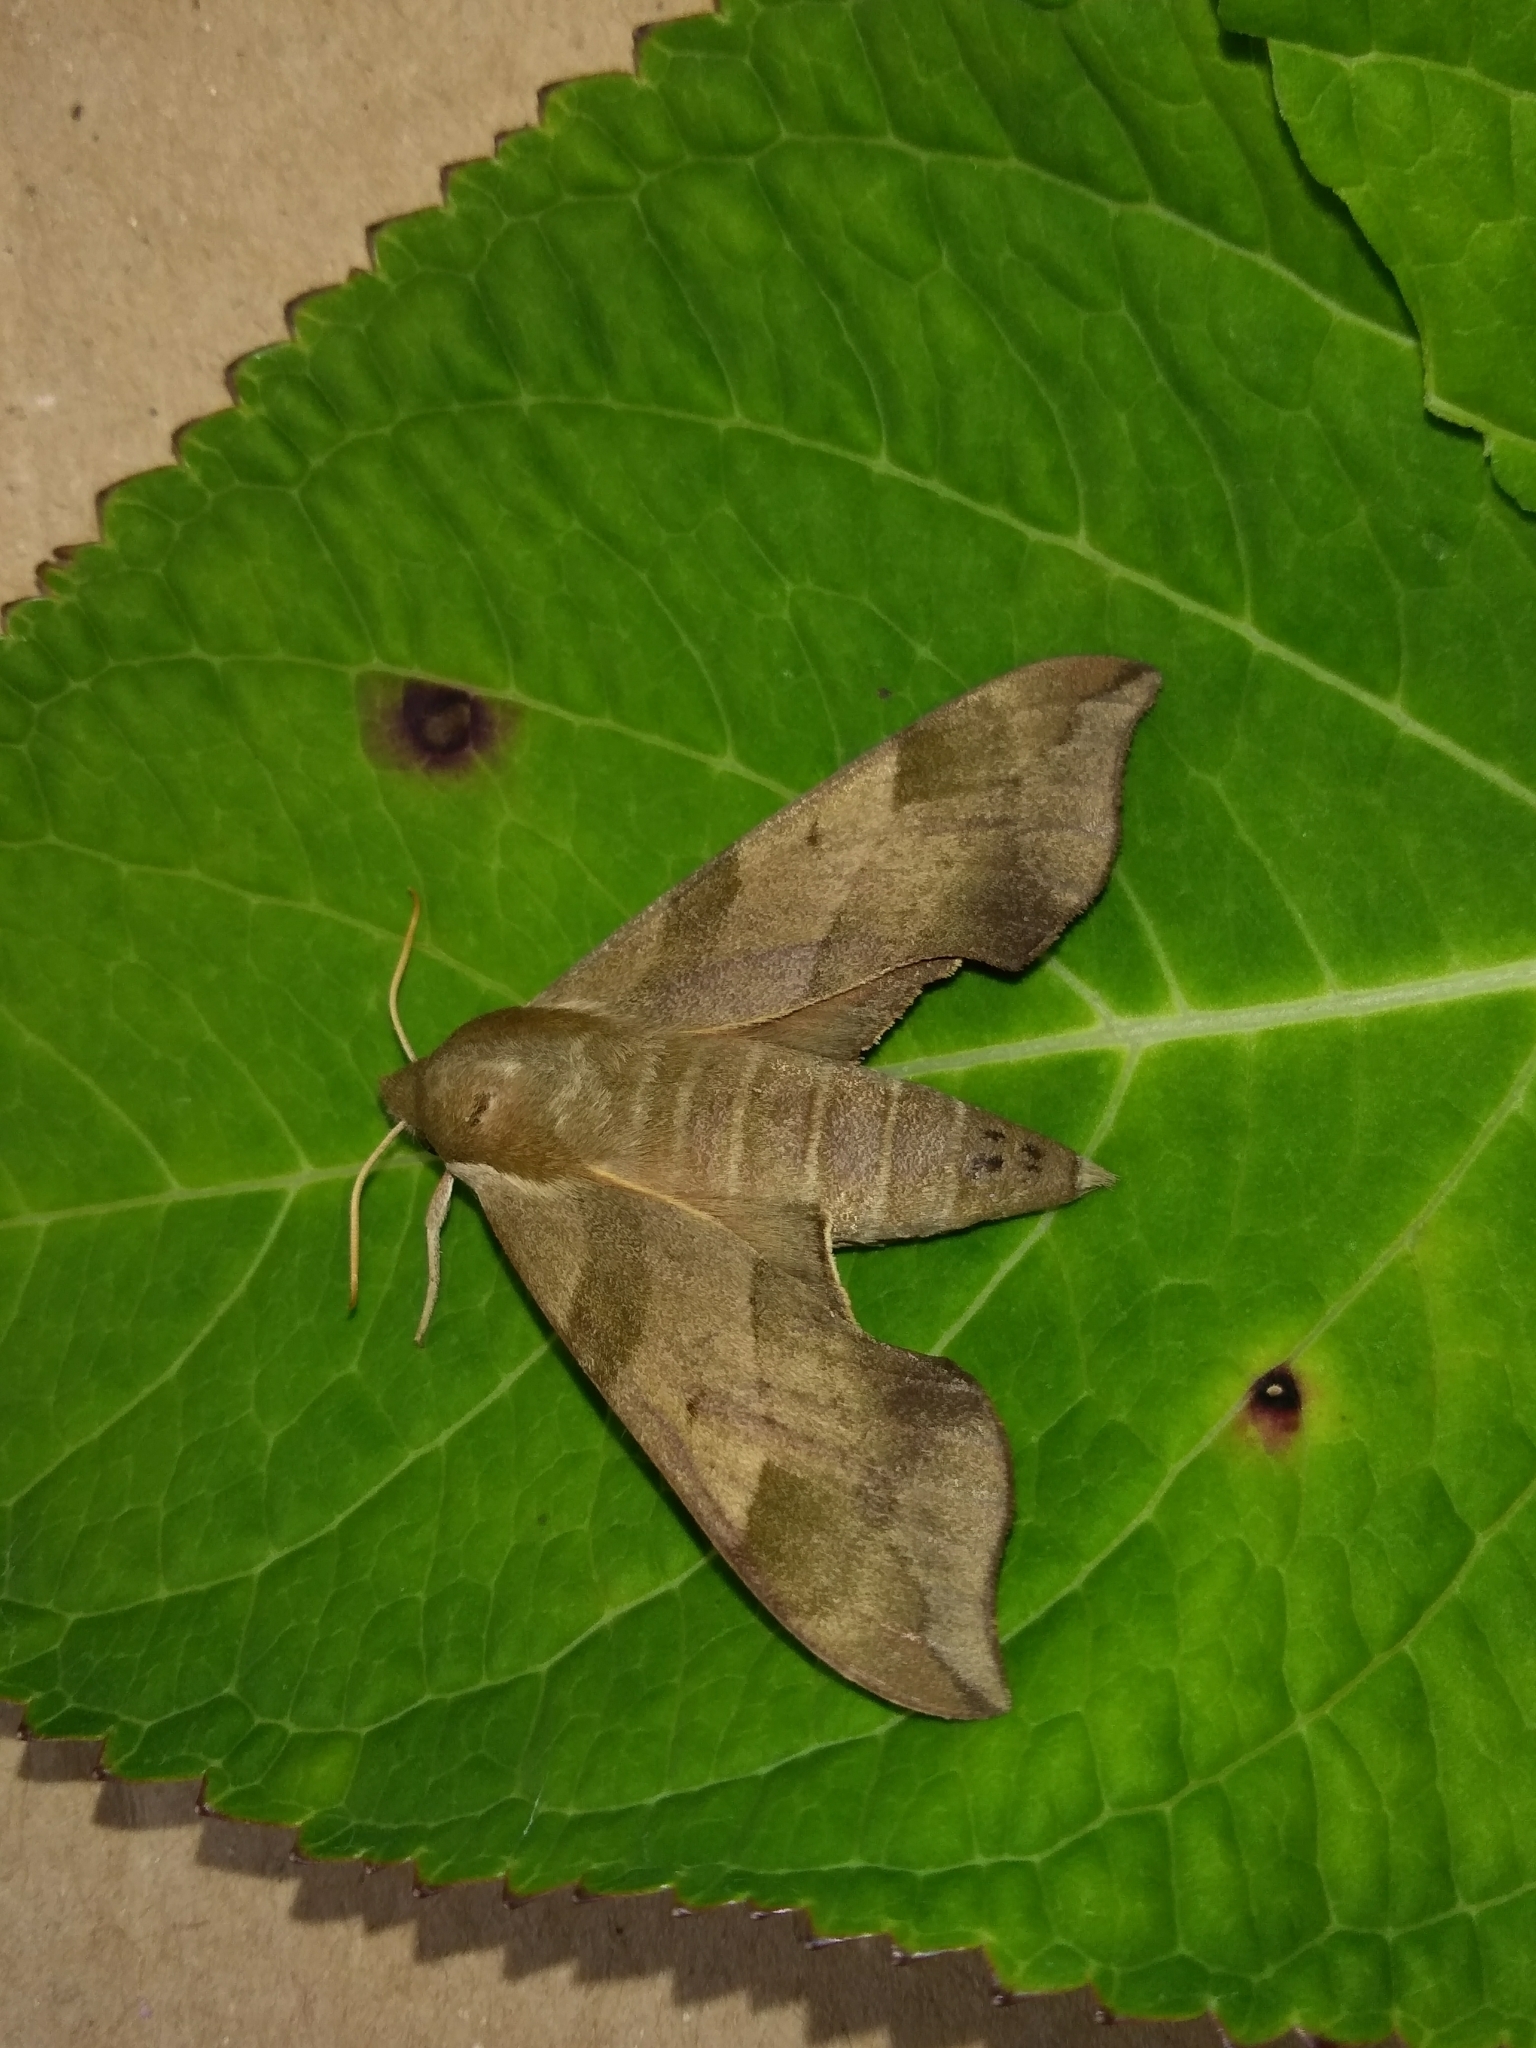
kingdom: Animalia
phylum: Arthropoda
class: Insecta
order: Lepidoptera
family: Sphingidae
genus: Darapsa
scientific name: Darapsa myron
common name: Hog sphinx
